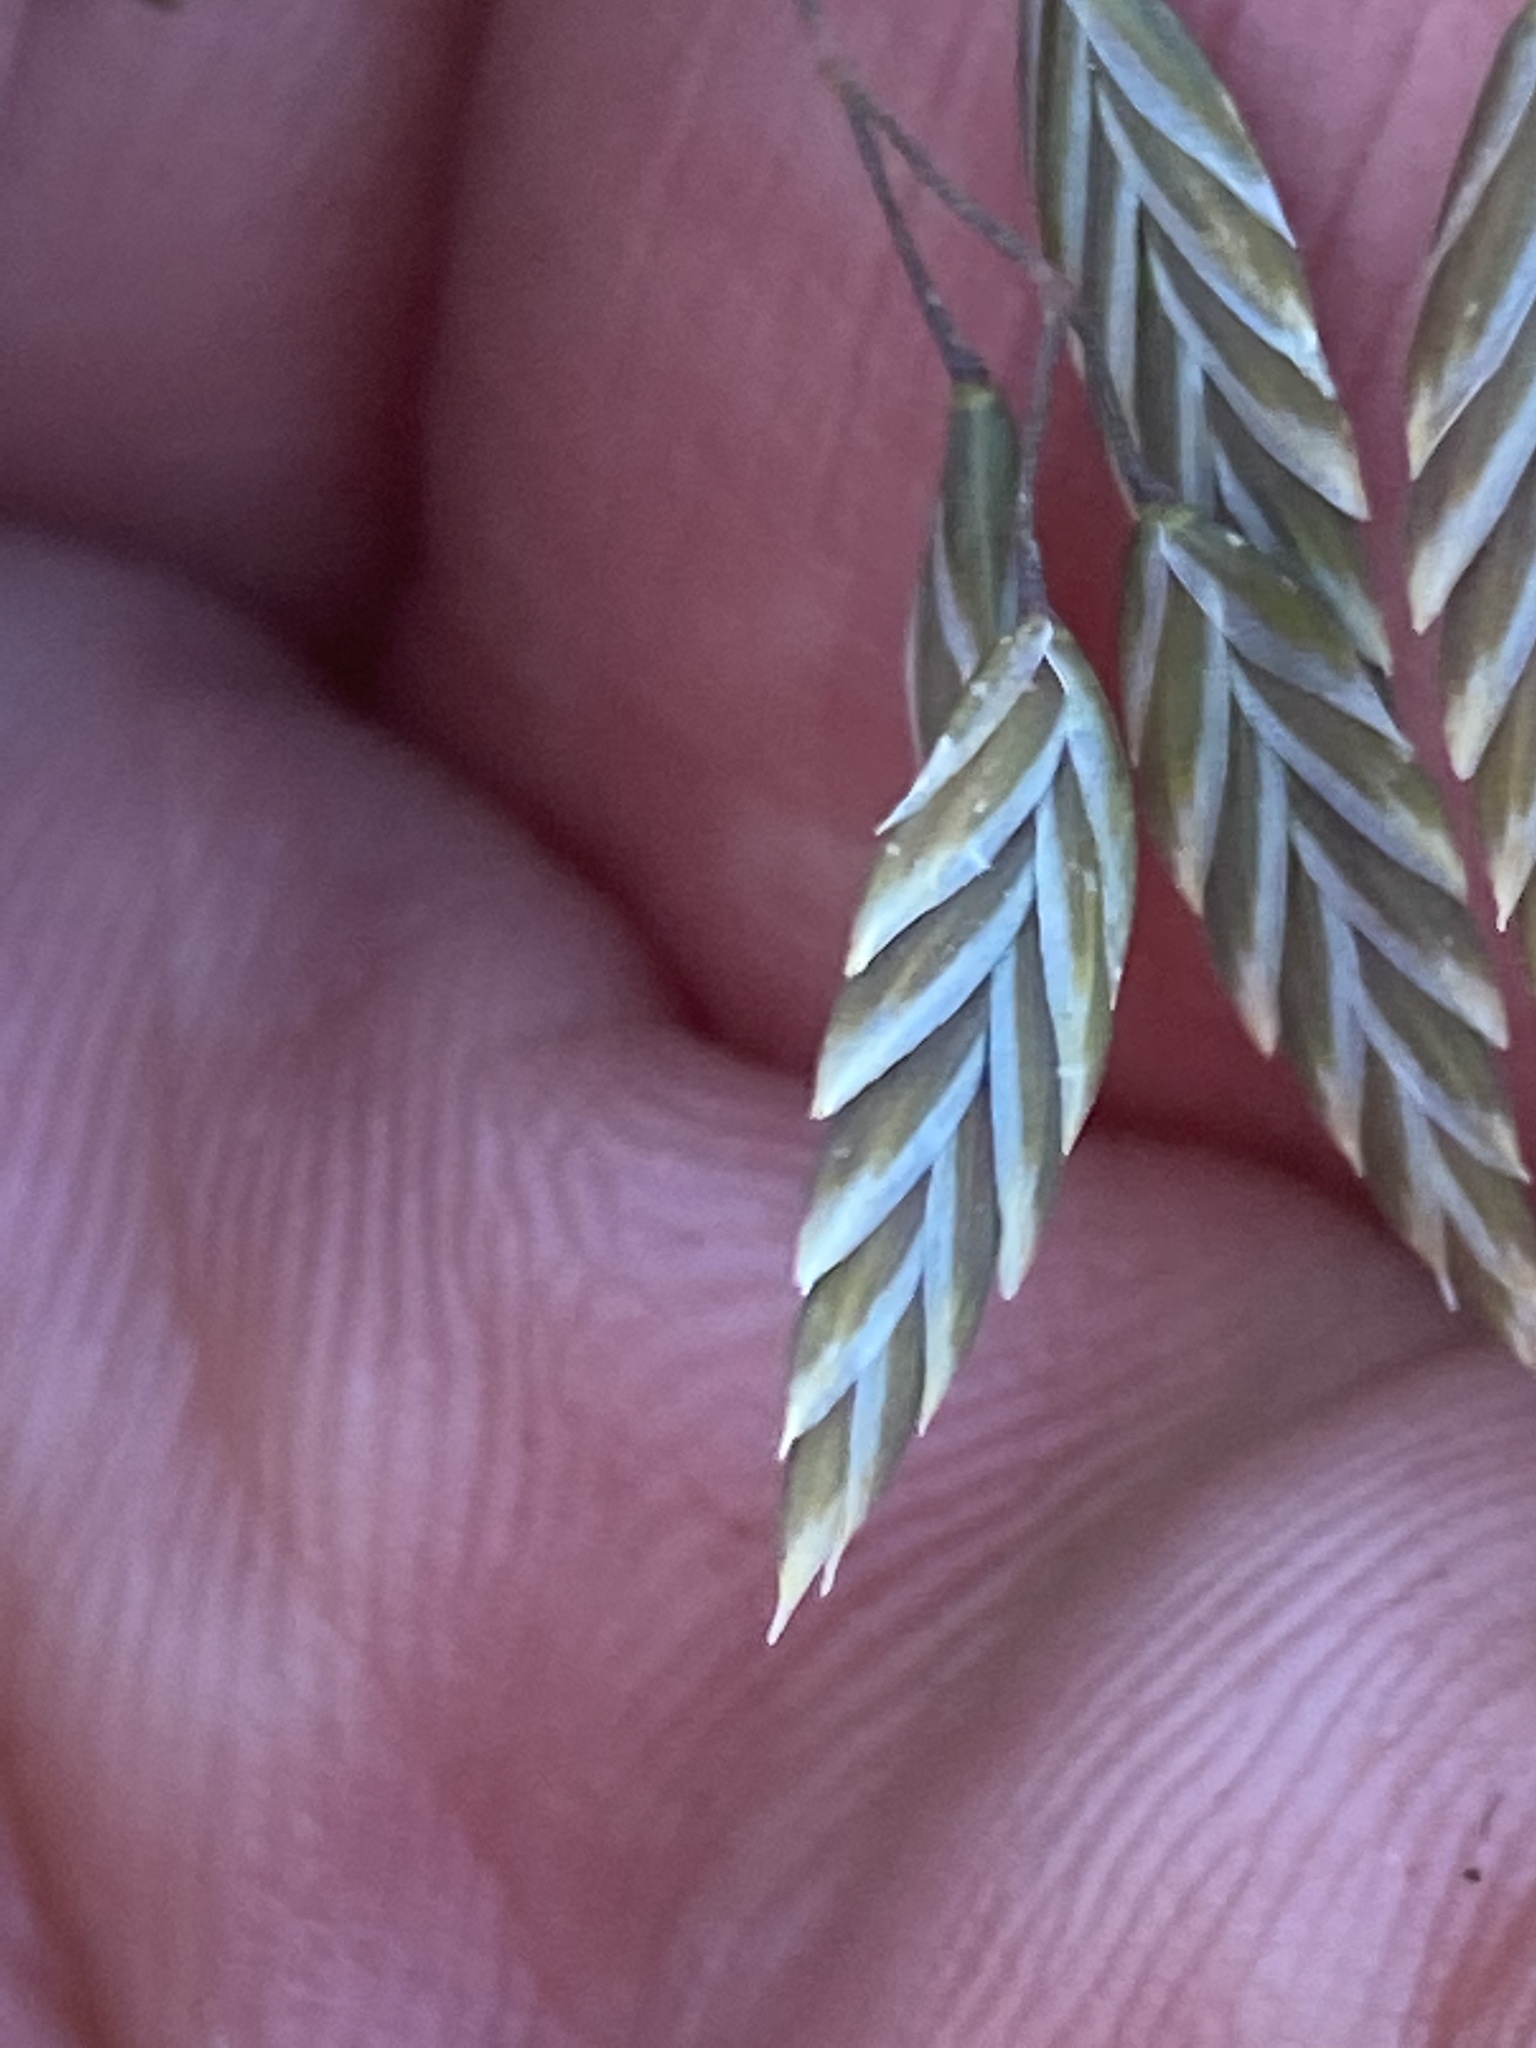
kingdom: Plantae
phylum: Tracheophyta
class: Liliopsida
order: Poales
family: Poaceae
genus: Poa
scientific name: Poa colensoi
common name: Blue tussock
